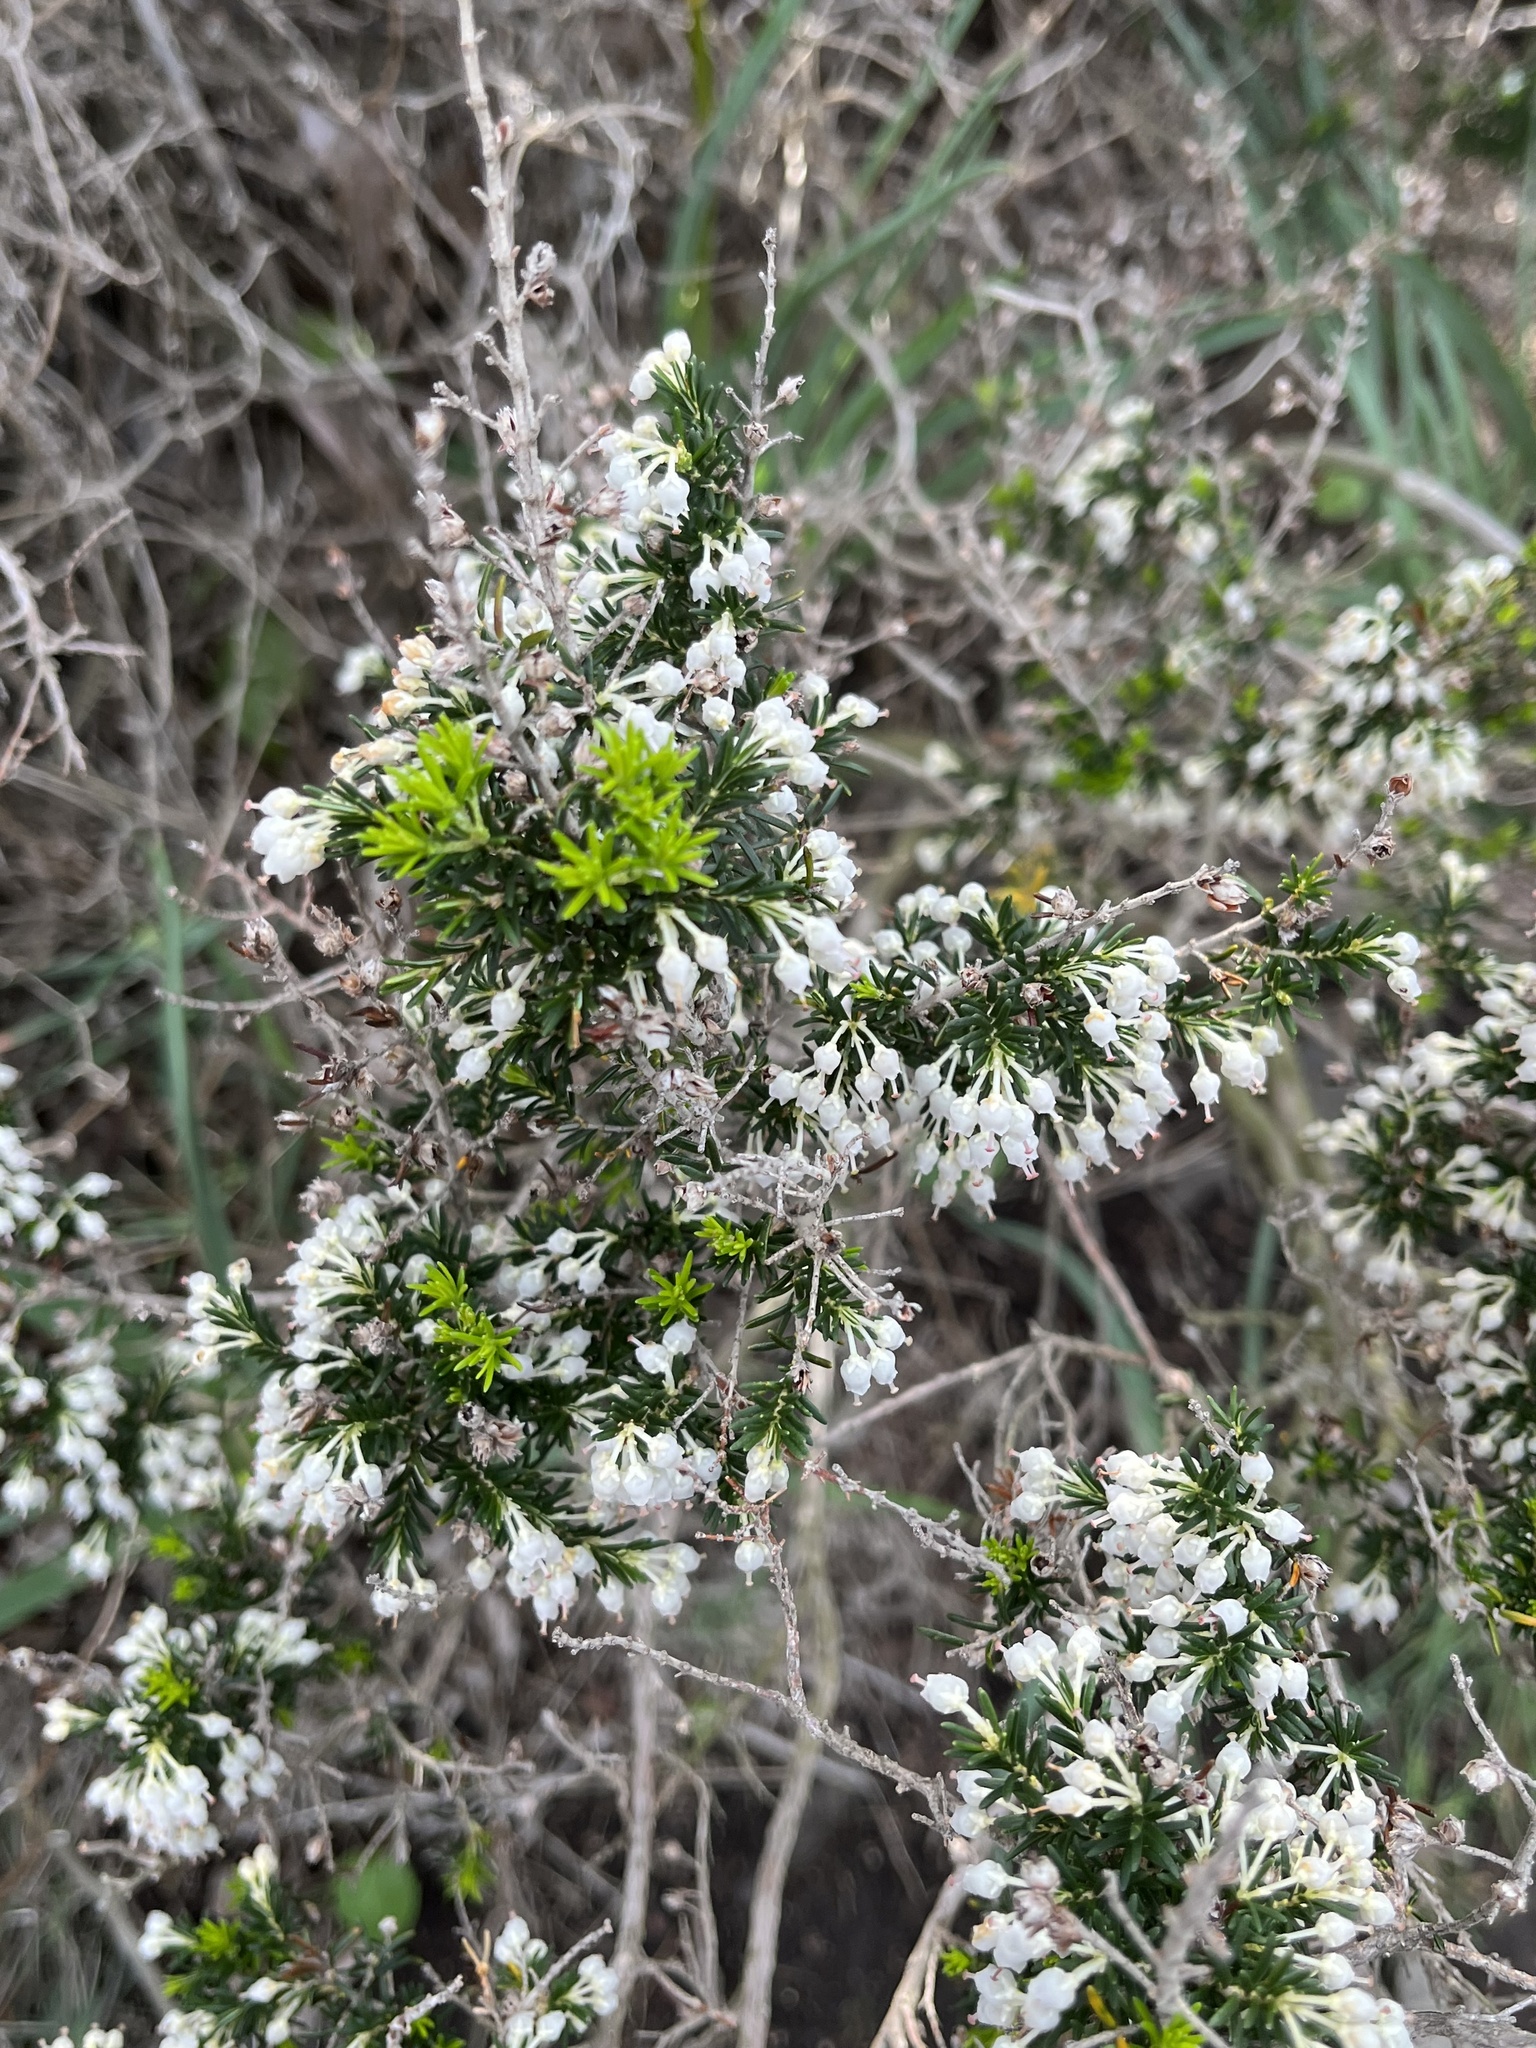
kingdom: Plantae
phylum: Tracheophyta
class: Magnoliopsida
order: Ericales
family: Ericaceae
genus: Erica
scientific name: Erica arborea
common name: Tree heath
